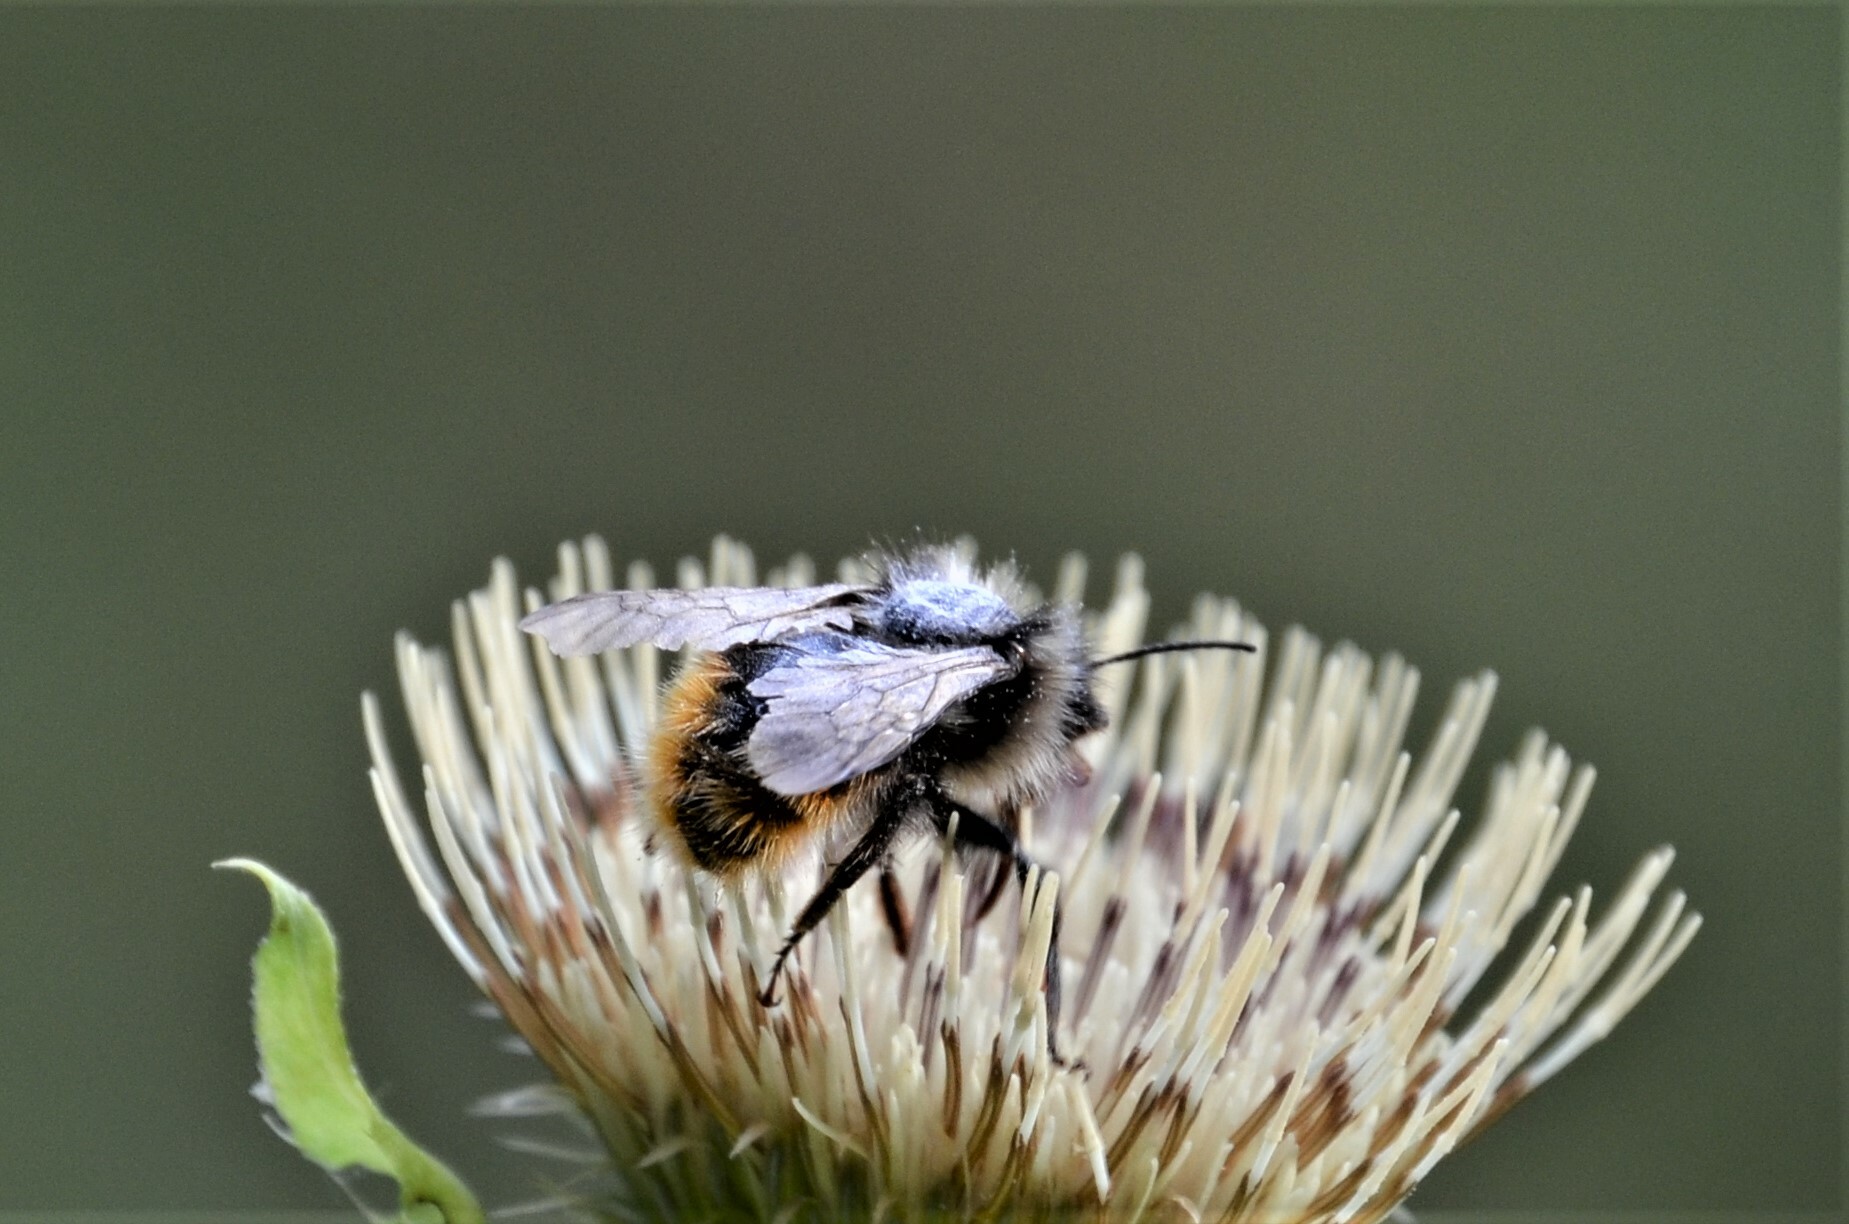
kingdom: Animalia
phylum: Arthropoda
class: Insecta
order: Hymenoptera
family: Apidae
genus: Bombus
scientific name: Bombus rupestris
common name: Hill cuckoo-bee
